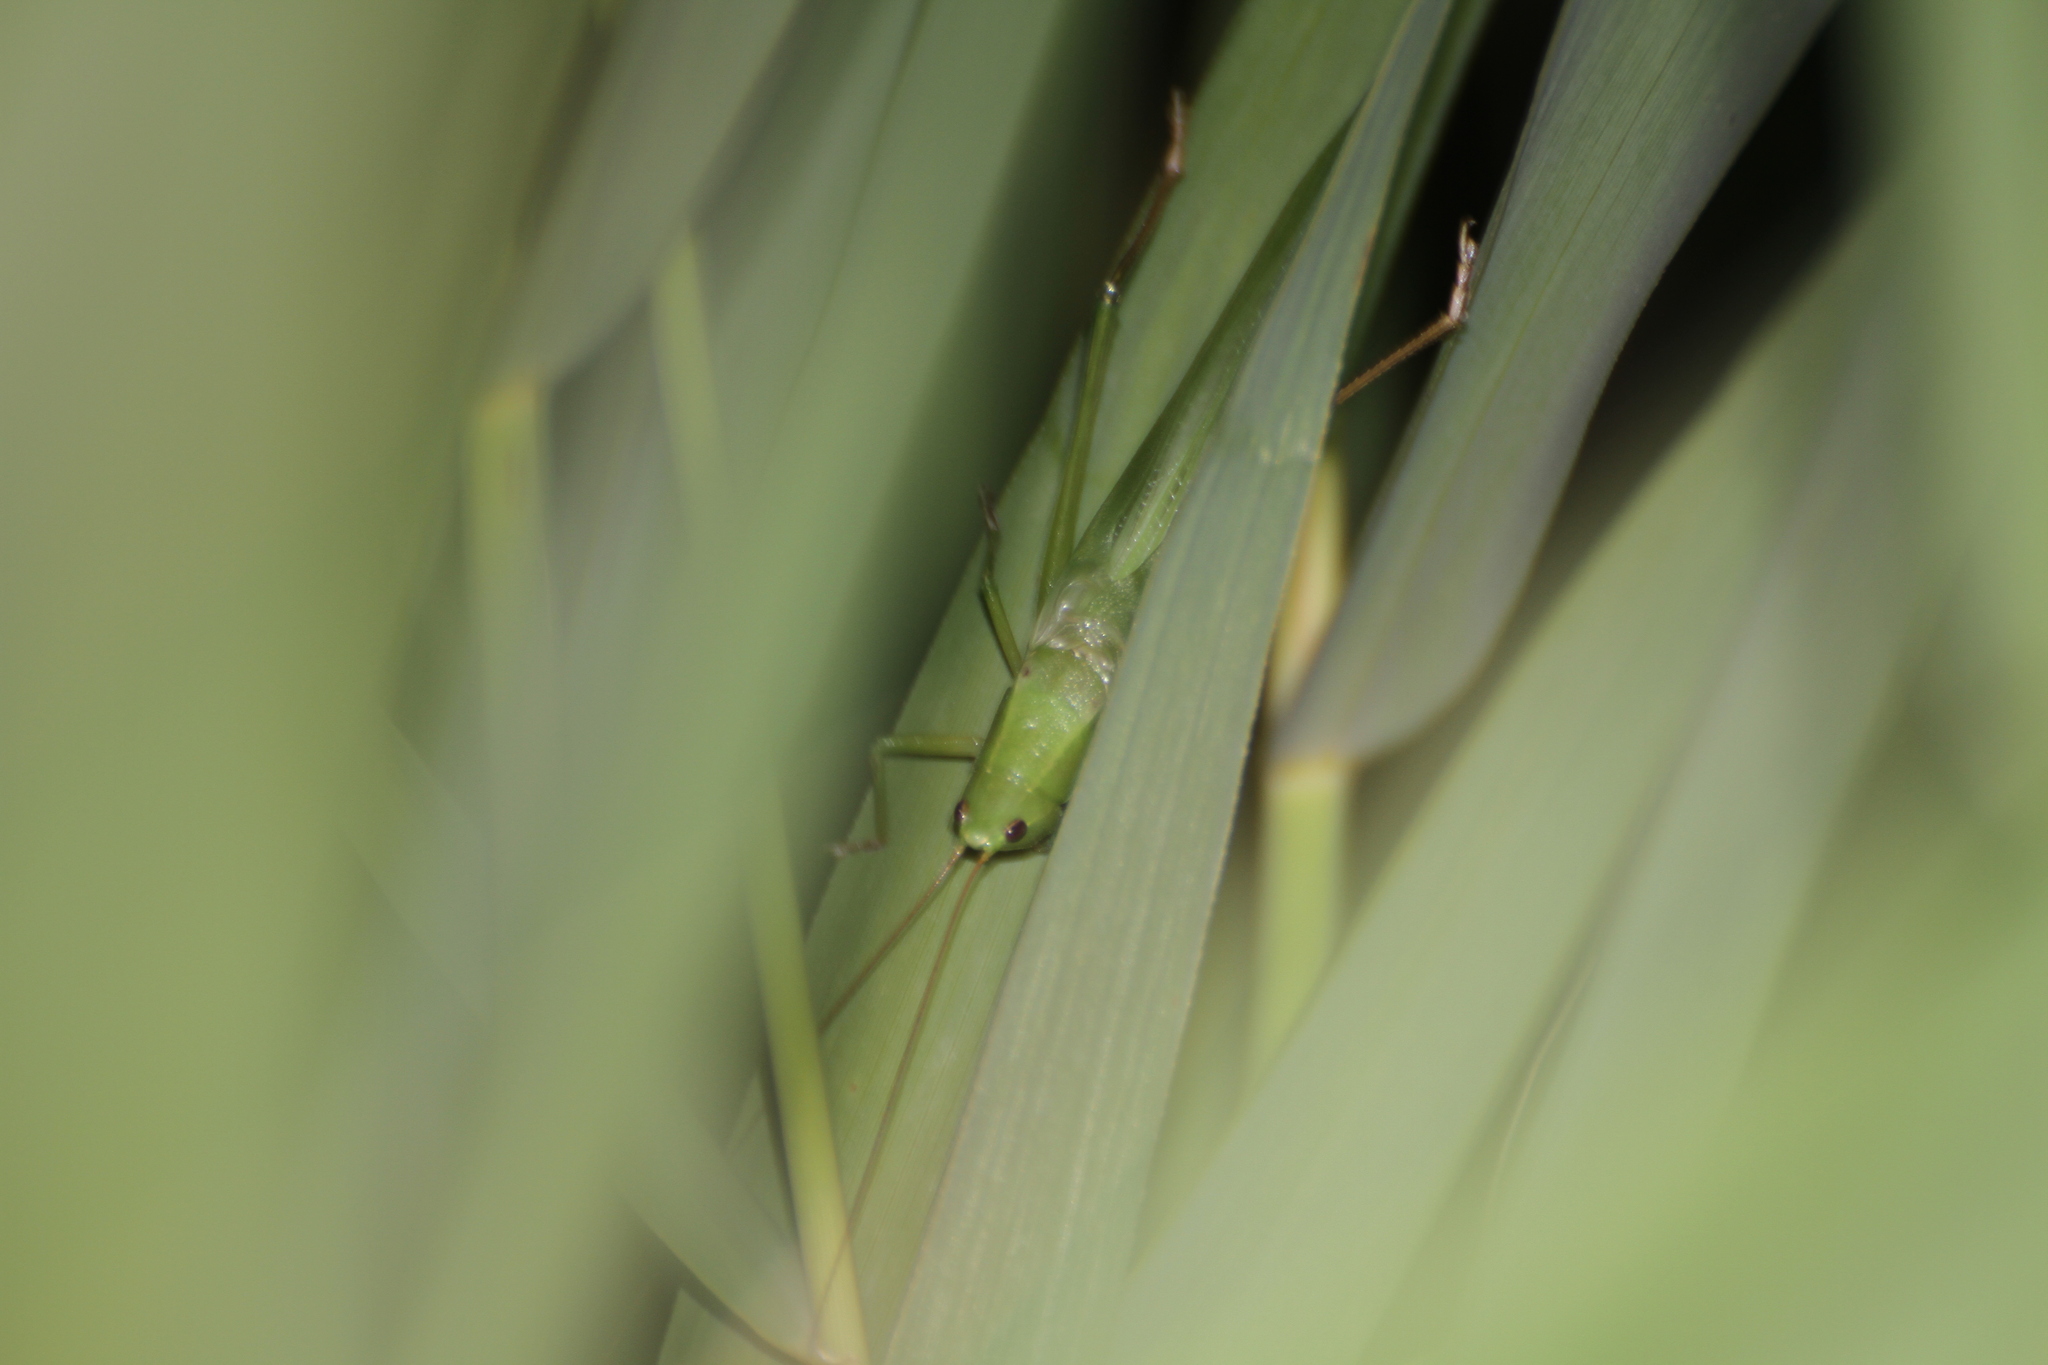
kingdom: Animalia
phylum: Arthropoda
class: Insecta
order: Orthoptera
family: Tettigoniidae
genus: Ruspolia
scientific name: Ruspolia nitidula
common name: Large conehead
